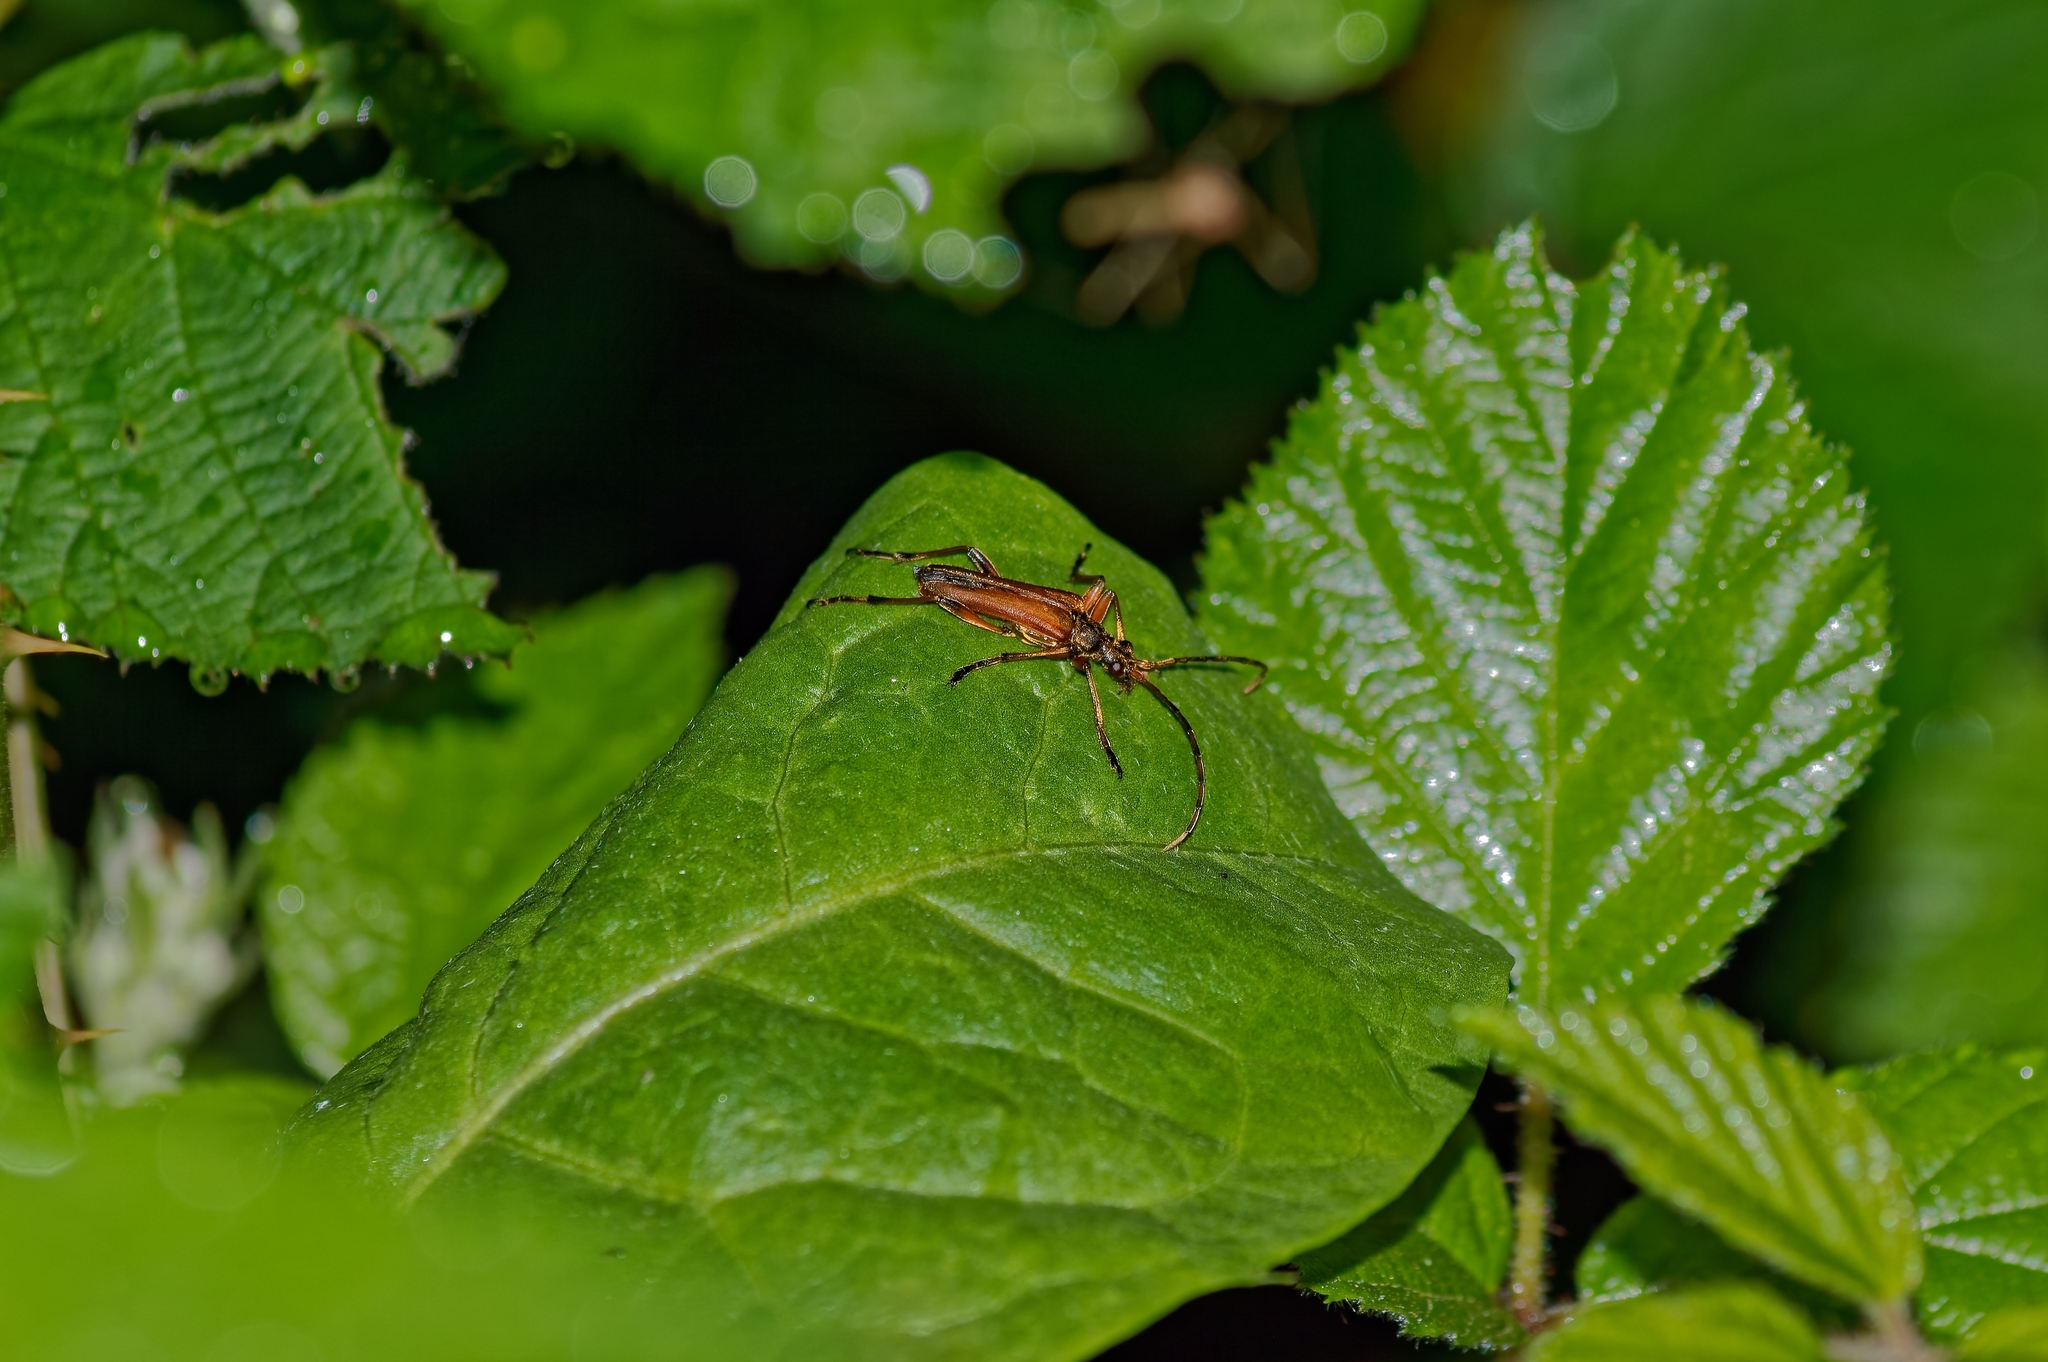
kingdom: Animalia
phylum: Arthropoda
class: Insecta
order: Coleoptera
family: Cerambycidae
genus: Stenocorus
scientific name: Stenocorus meridianus
